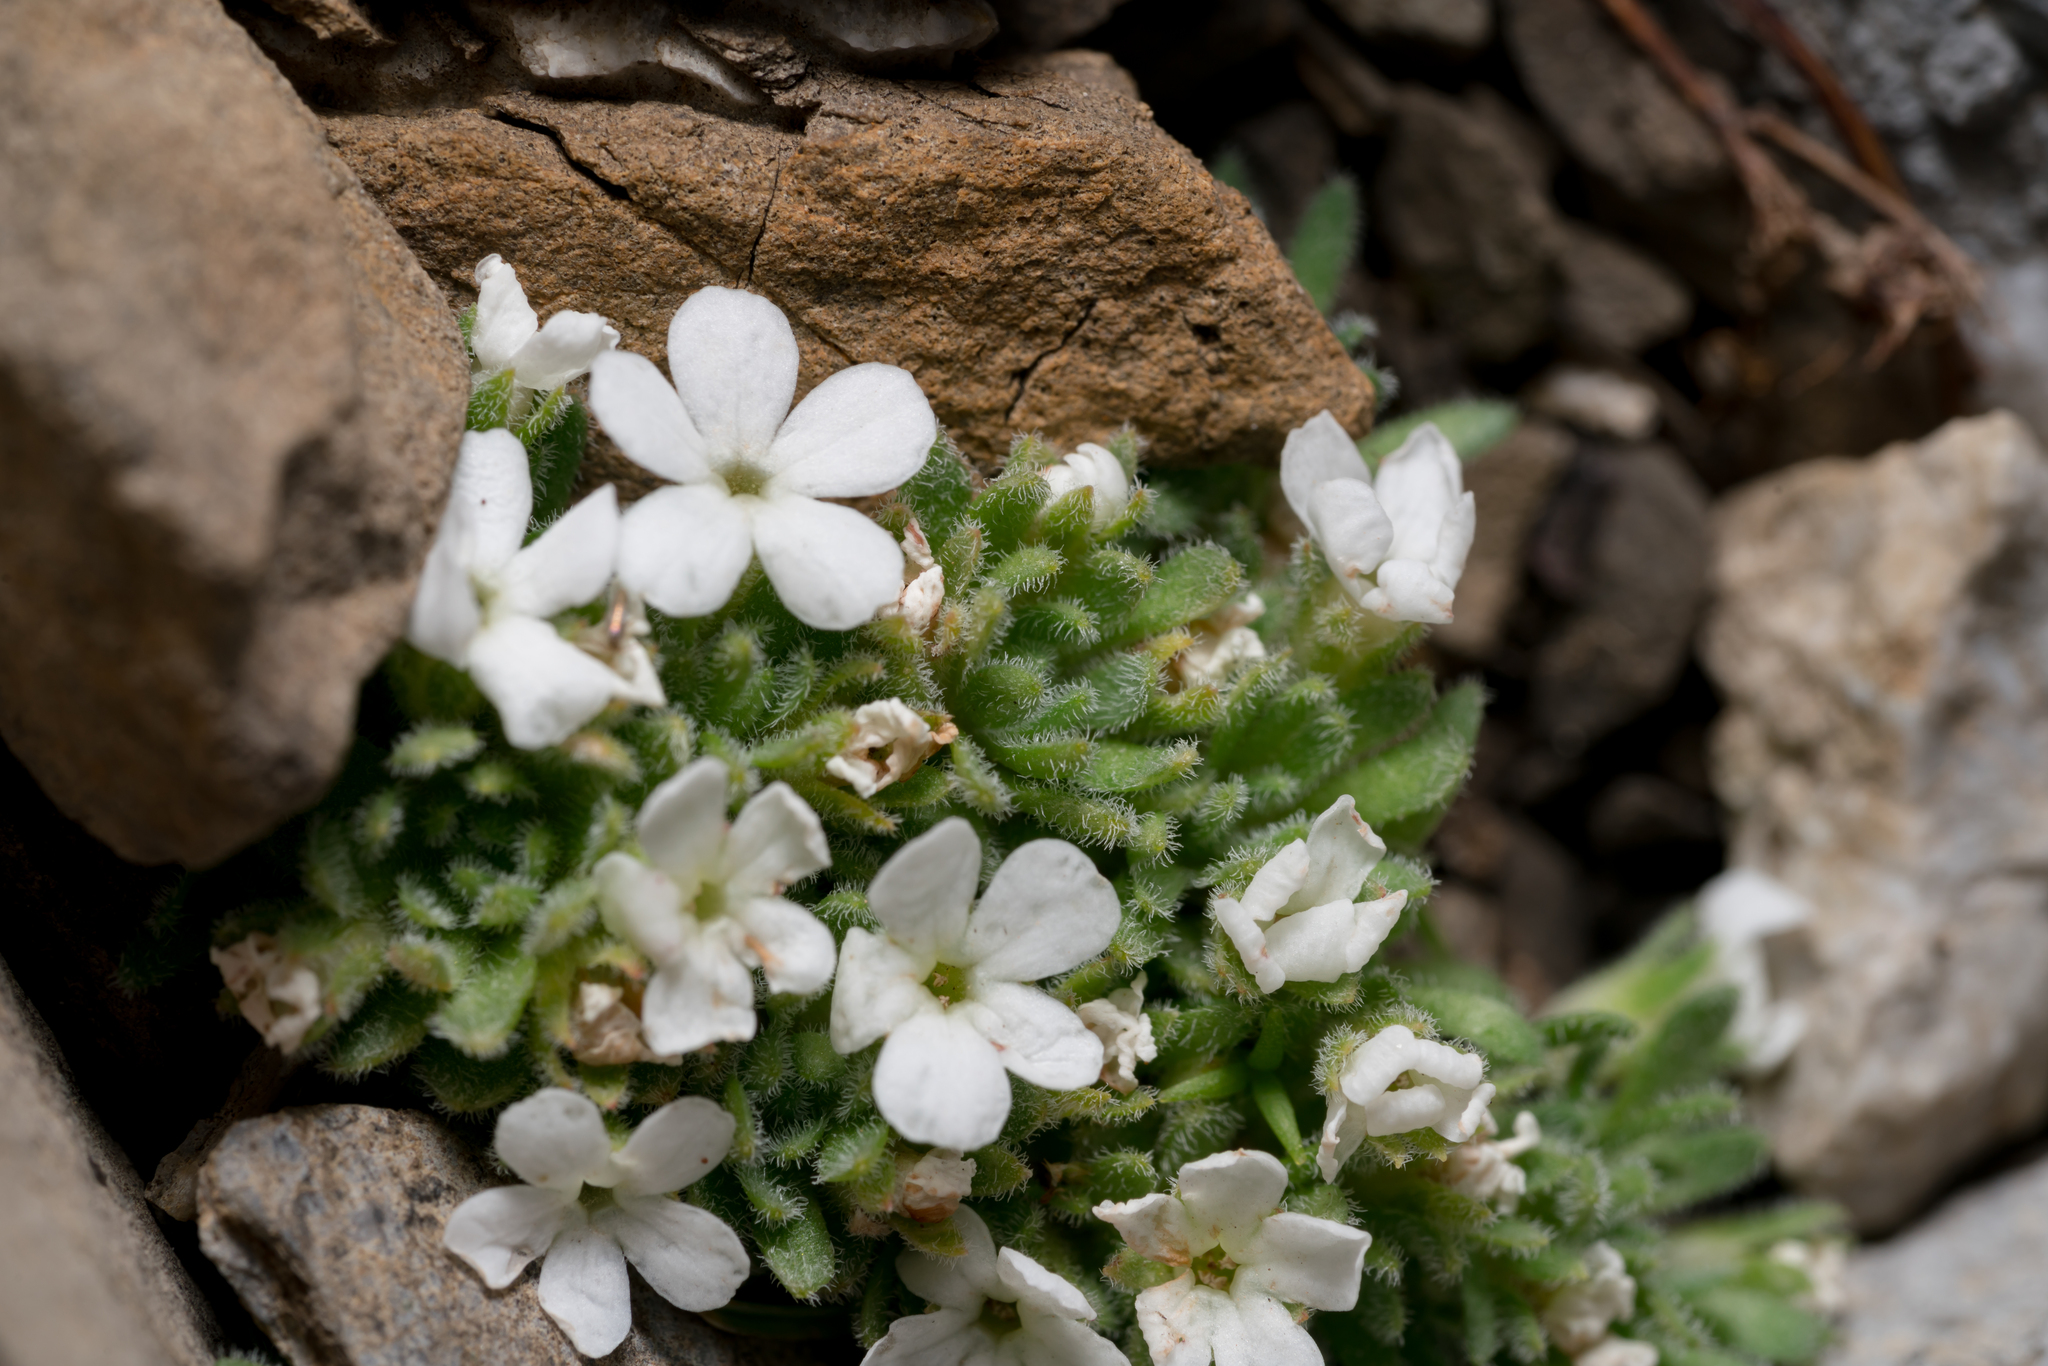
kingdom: Plantae
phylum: Tracheophyta
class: Magnoliopsida
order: Ericales
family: Primulaceae
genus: Androsace
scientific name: Androsace pubescens
